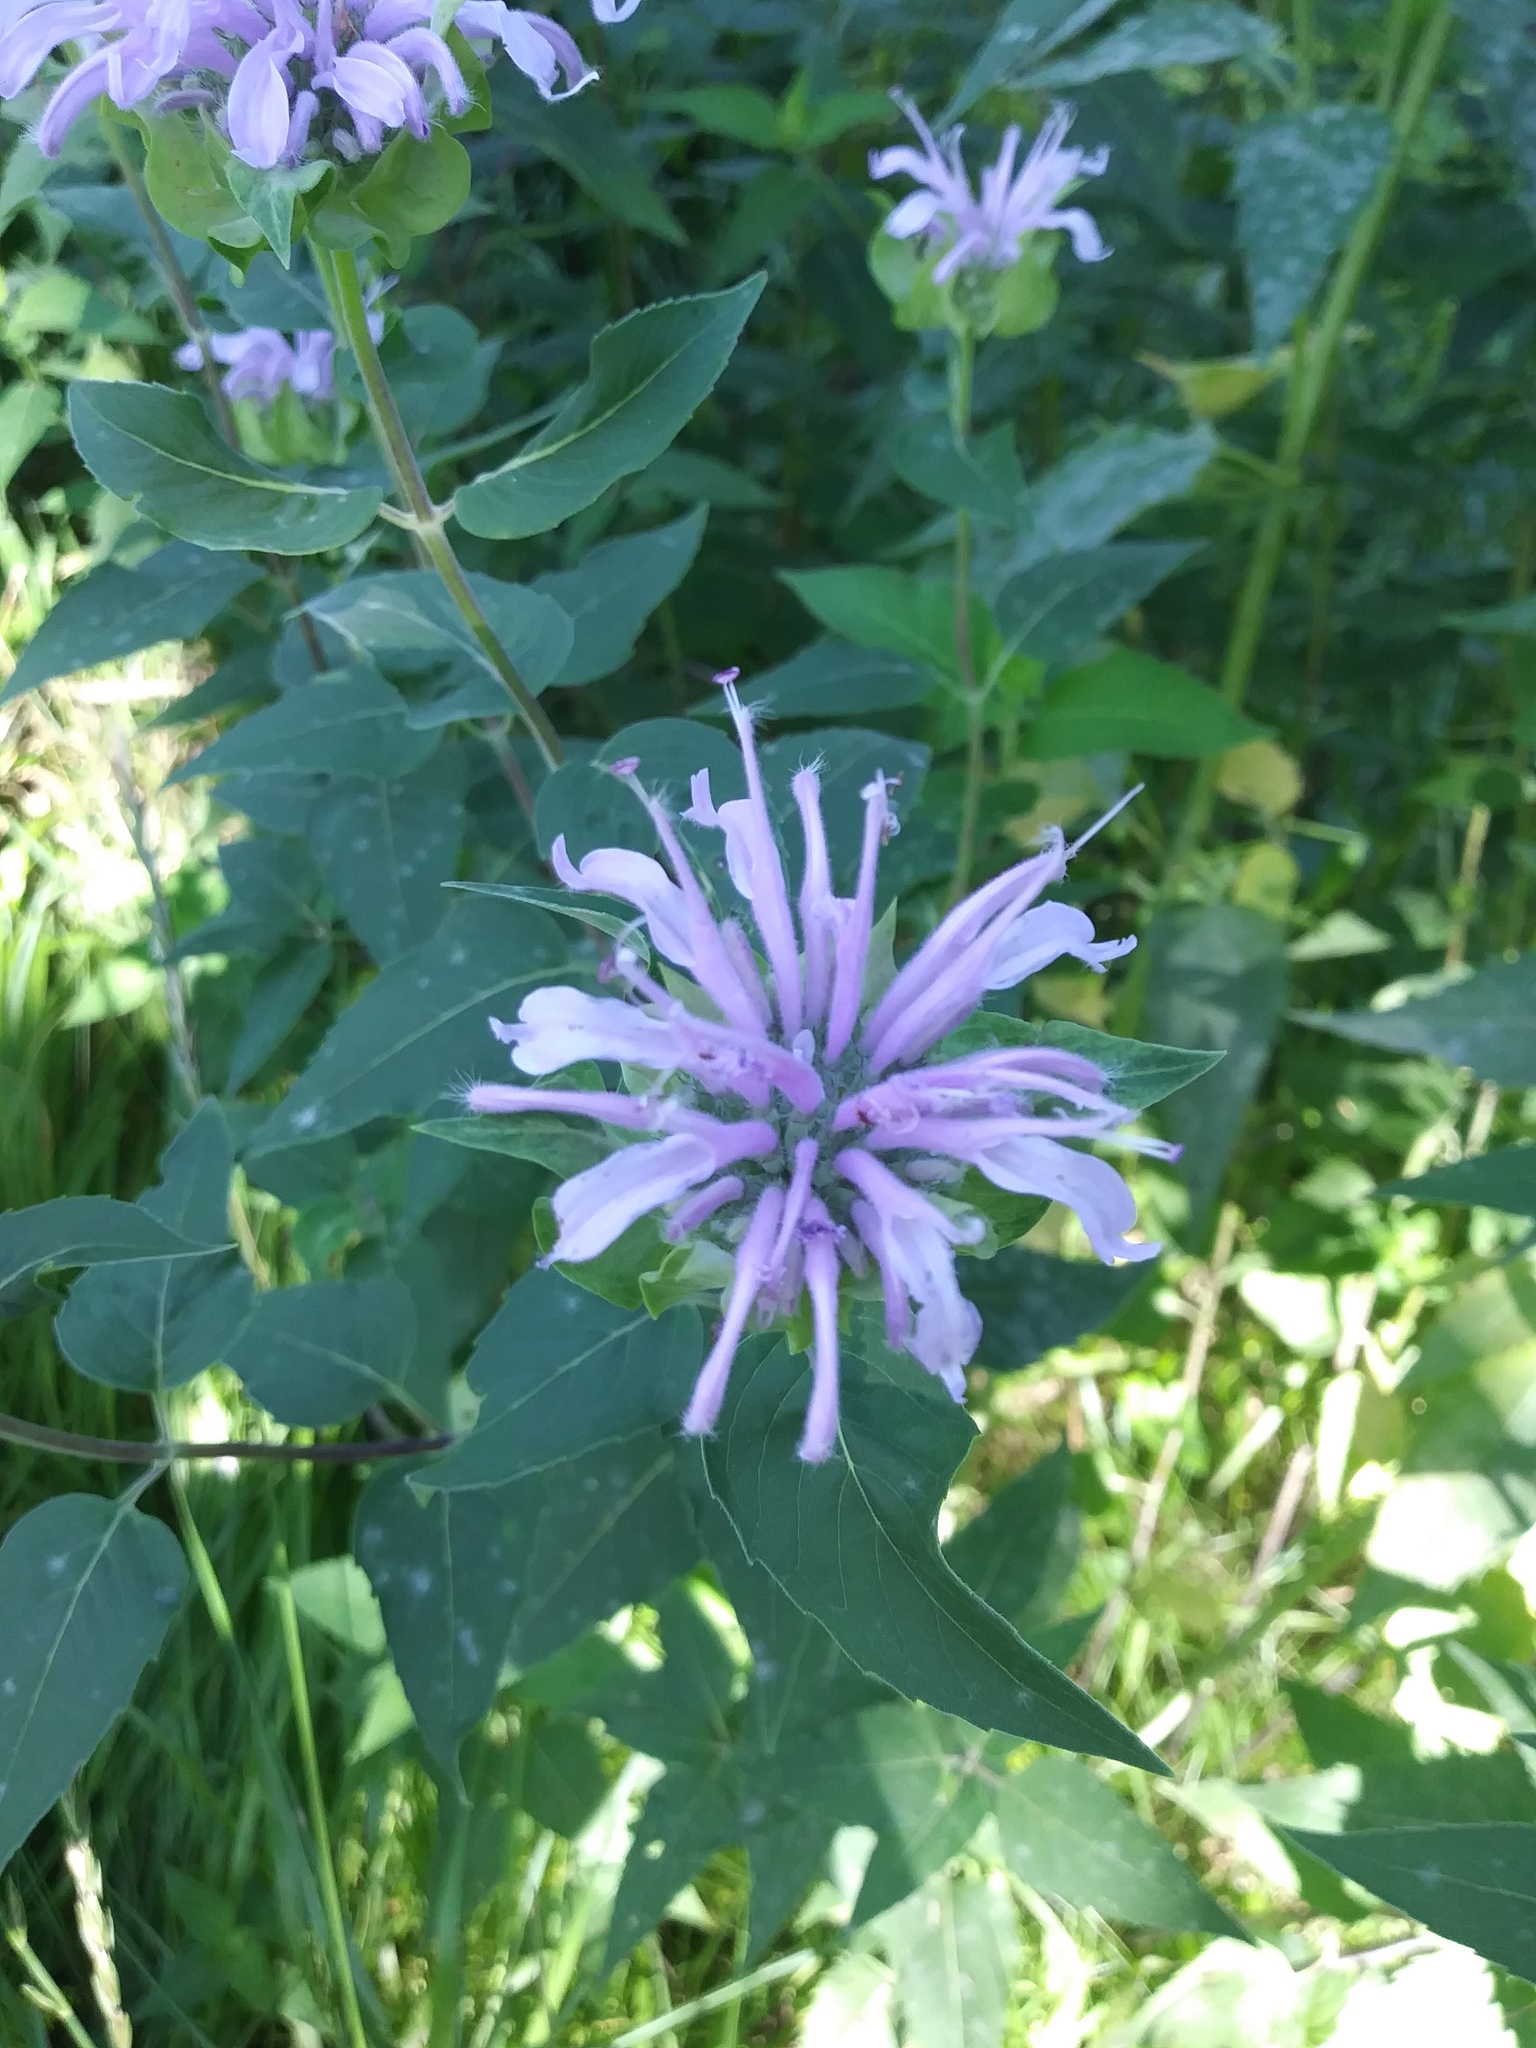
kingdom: Plantae
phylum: Tracheophyta
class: Magnoliopsida
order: Lamiales
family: Lamiaceae
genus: Monarda
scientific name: Monarda fistulosa
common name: Purple beebalm
